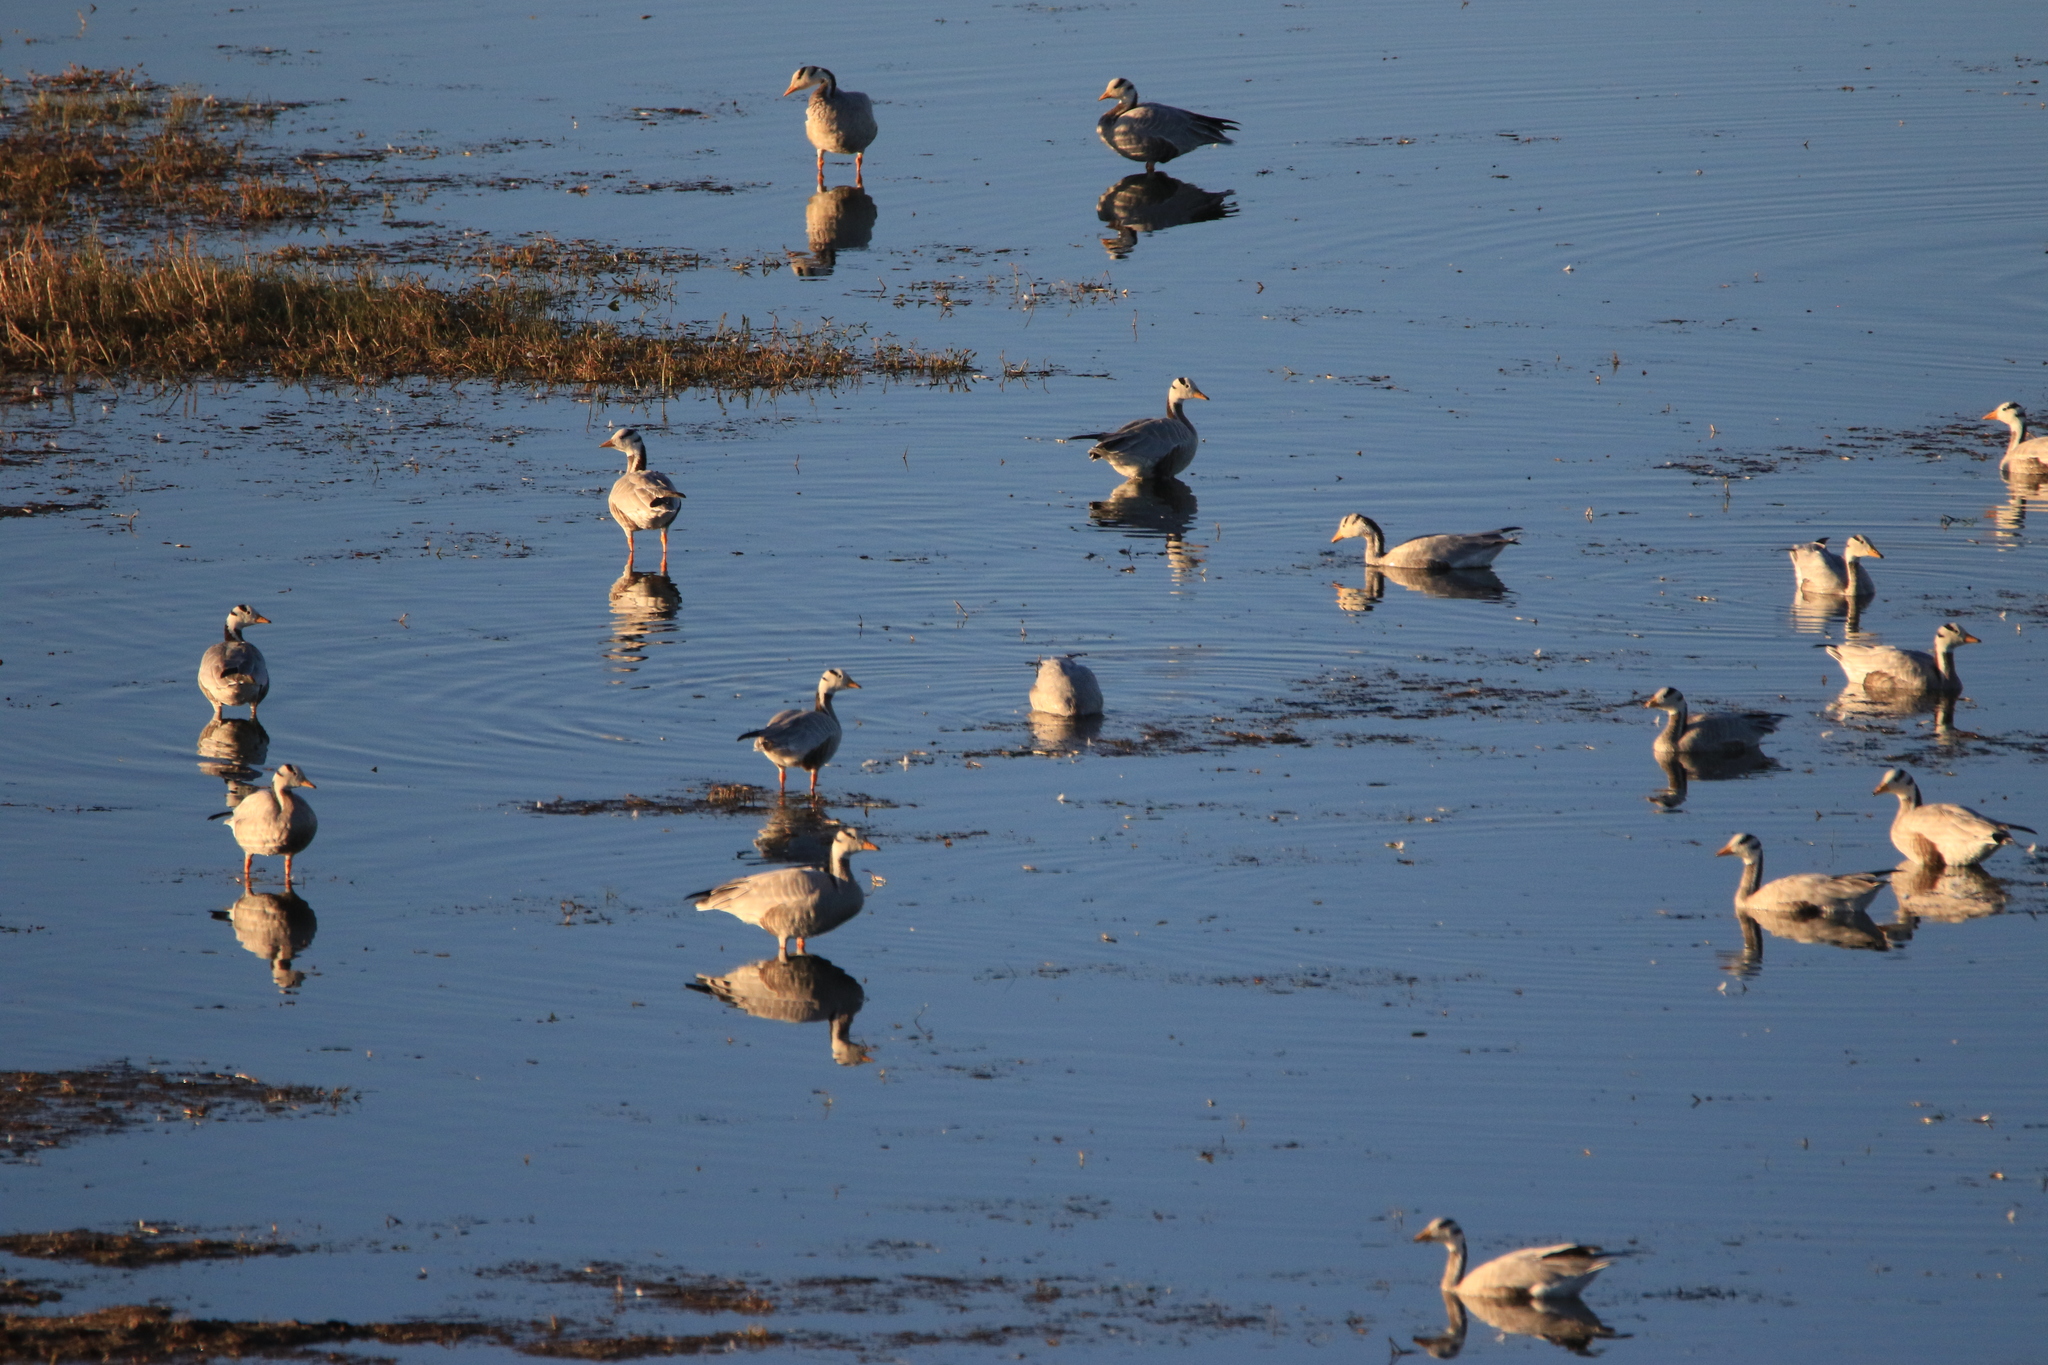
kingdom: Animalia
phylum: Chordata
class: Aves
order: Anseriformes
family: Anatidae
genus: Anser
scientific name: Anser indicus
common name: Bar-headed goose
